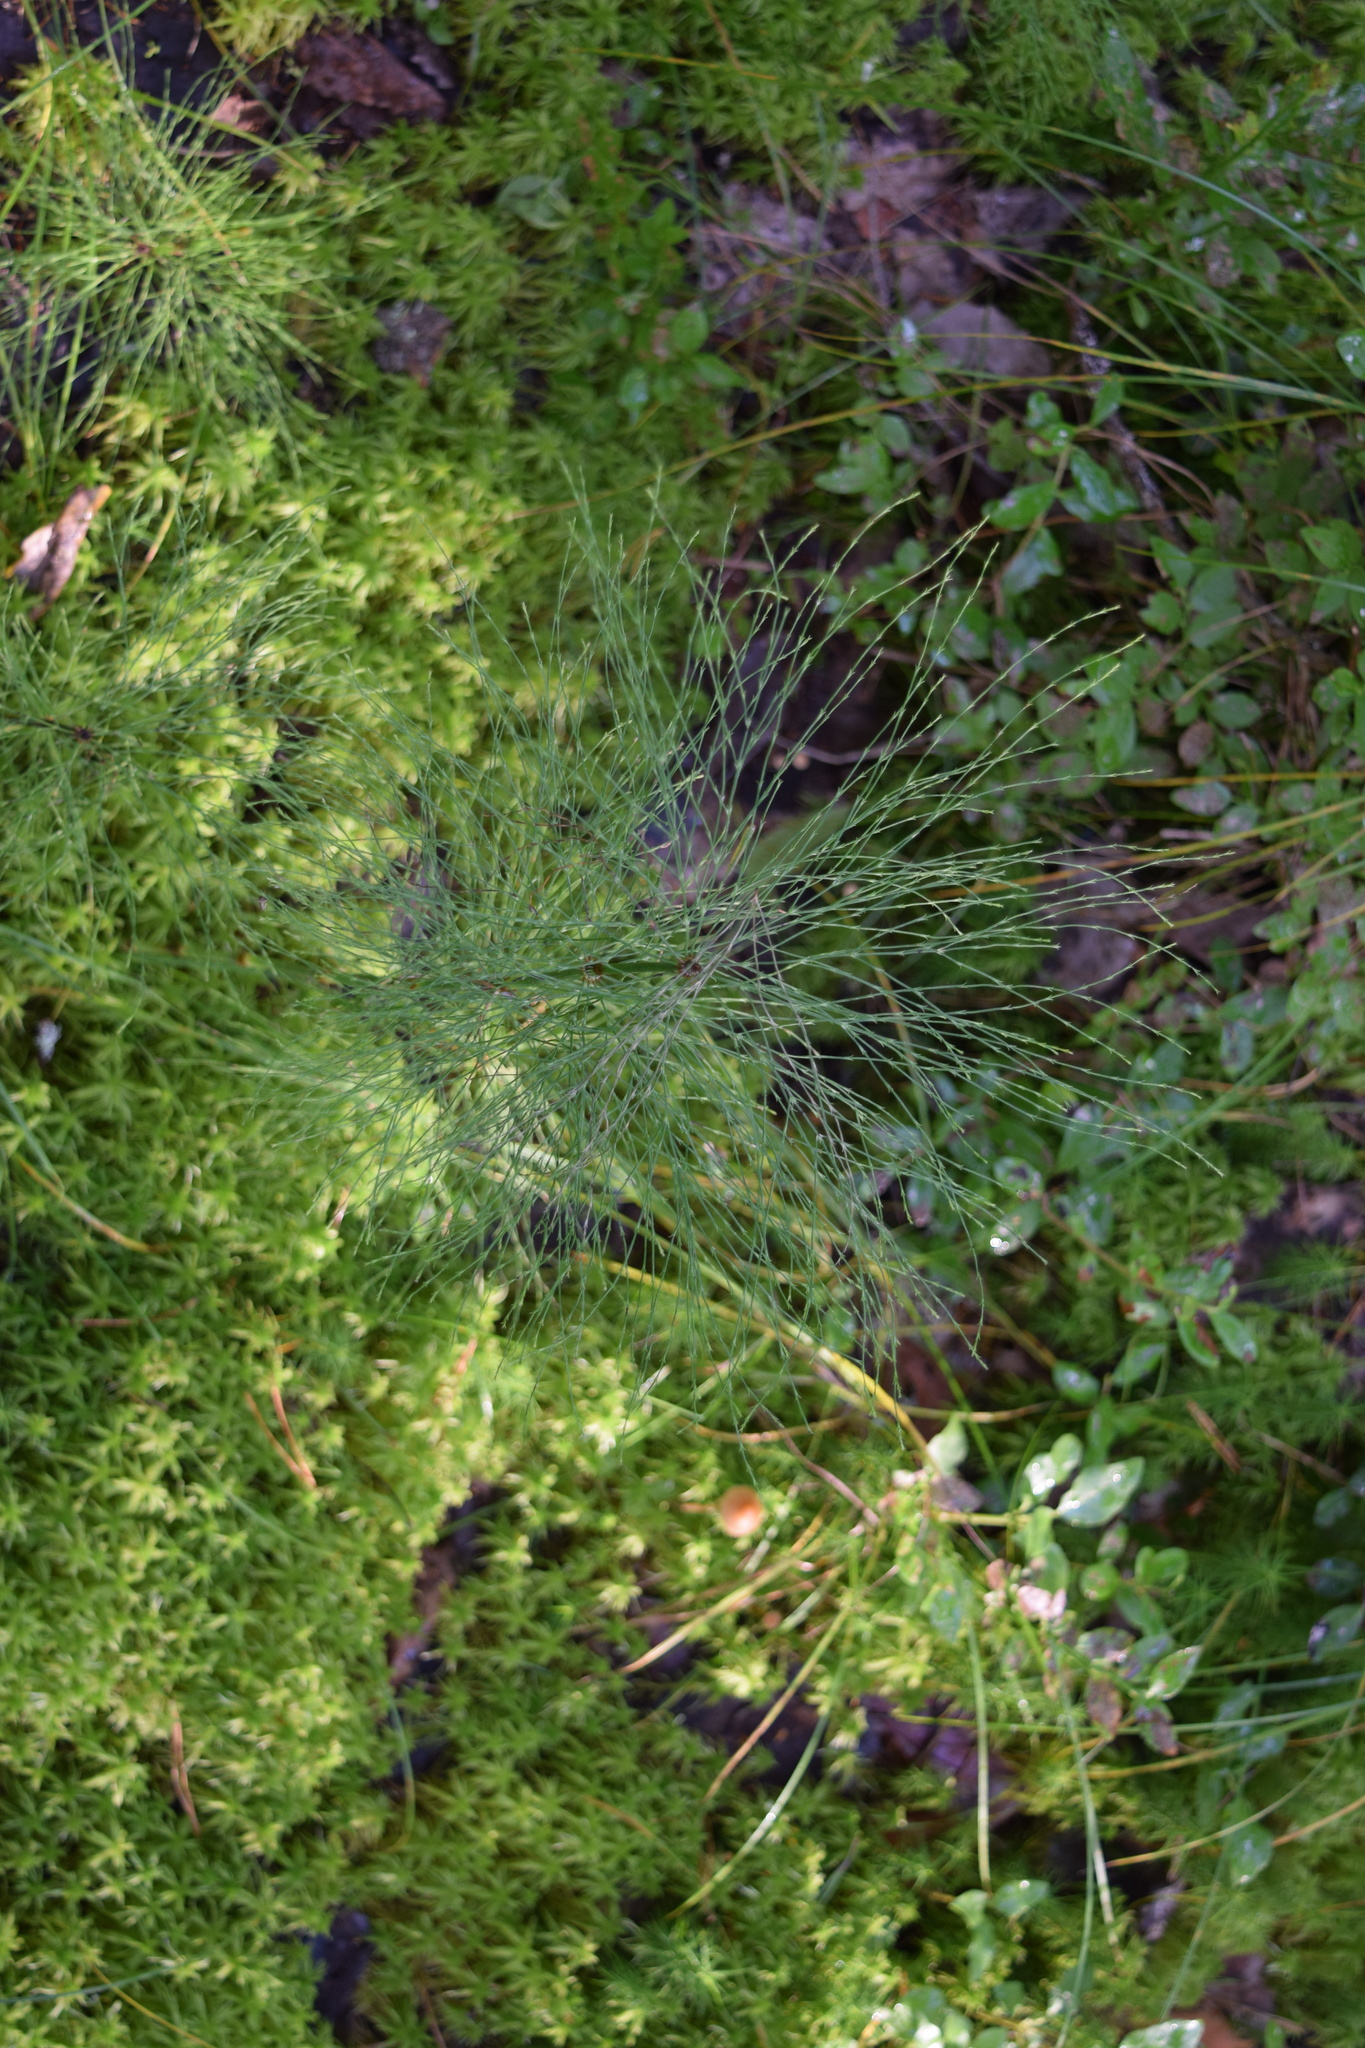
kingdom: Plantae
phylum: Tracheophyta
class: Polypodiopsida
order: Equisetales
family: Equisetaceae
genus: Equisetum
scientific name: Equisetum sylvaticum
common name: Wood horsetail
